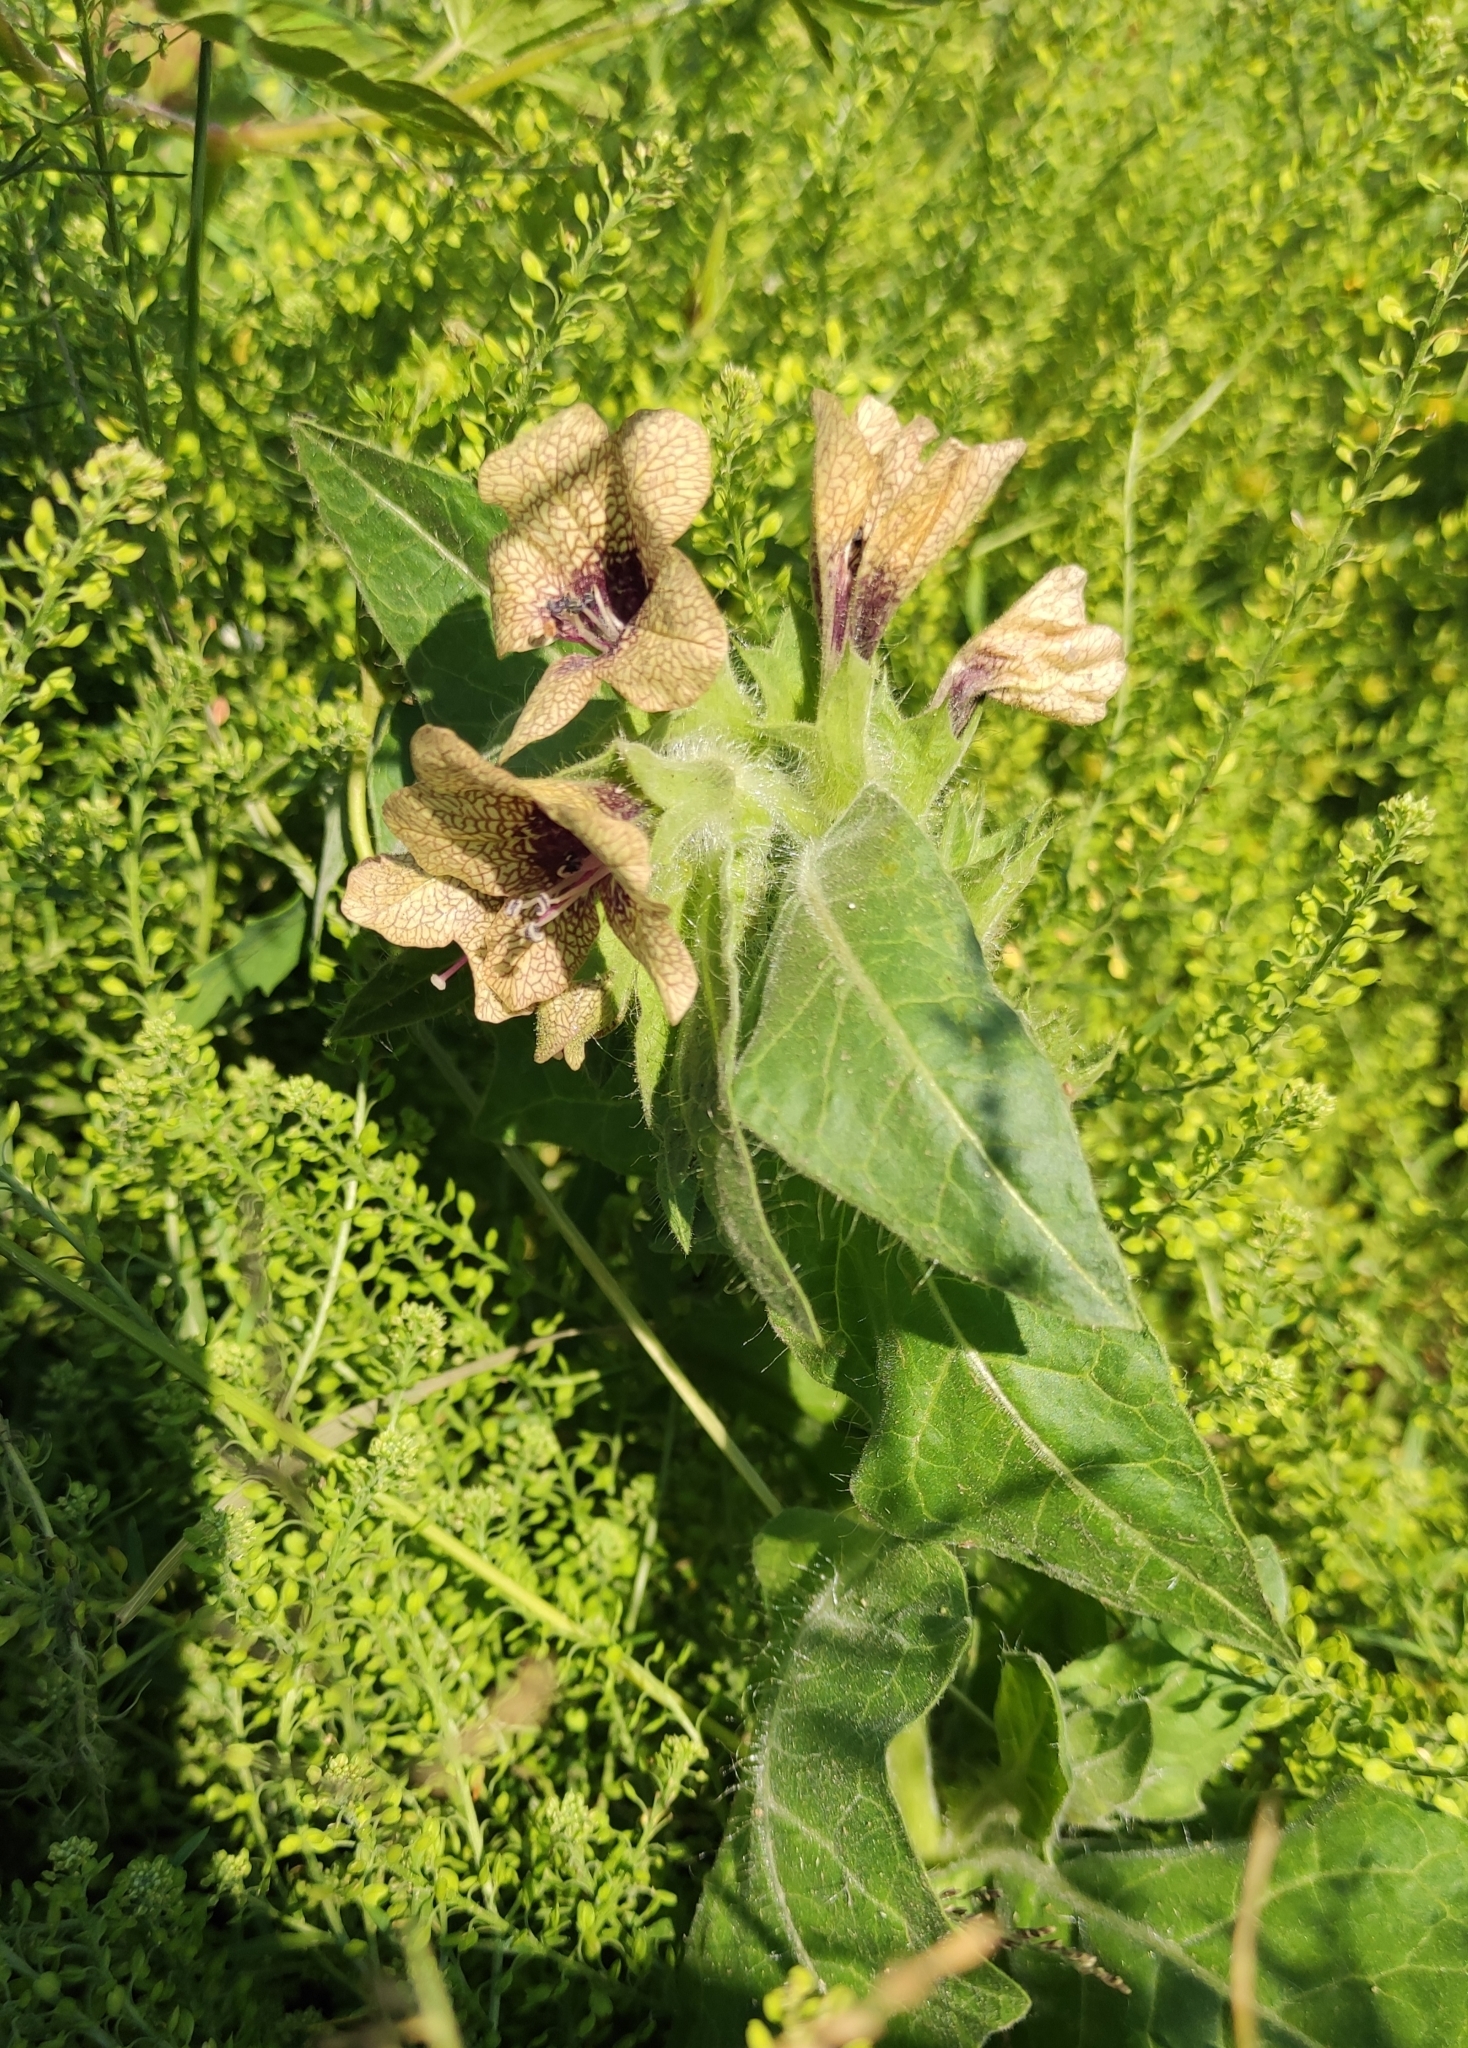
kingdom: Plantae
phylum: Tracheophyta
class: Magnoliopsida
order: Solanales
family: Solanaceae
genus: Hyoscyamus
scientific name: Hyoscyamus niger
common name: Henbane
